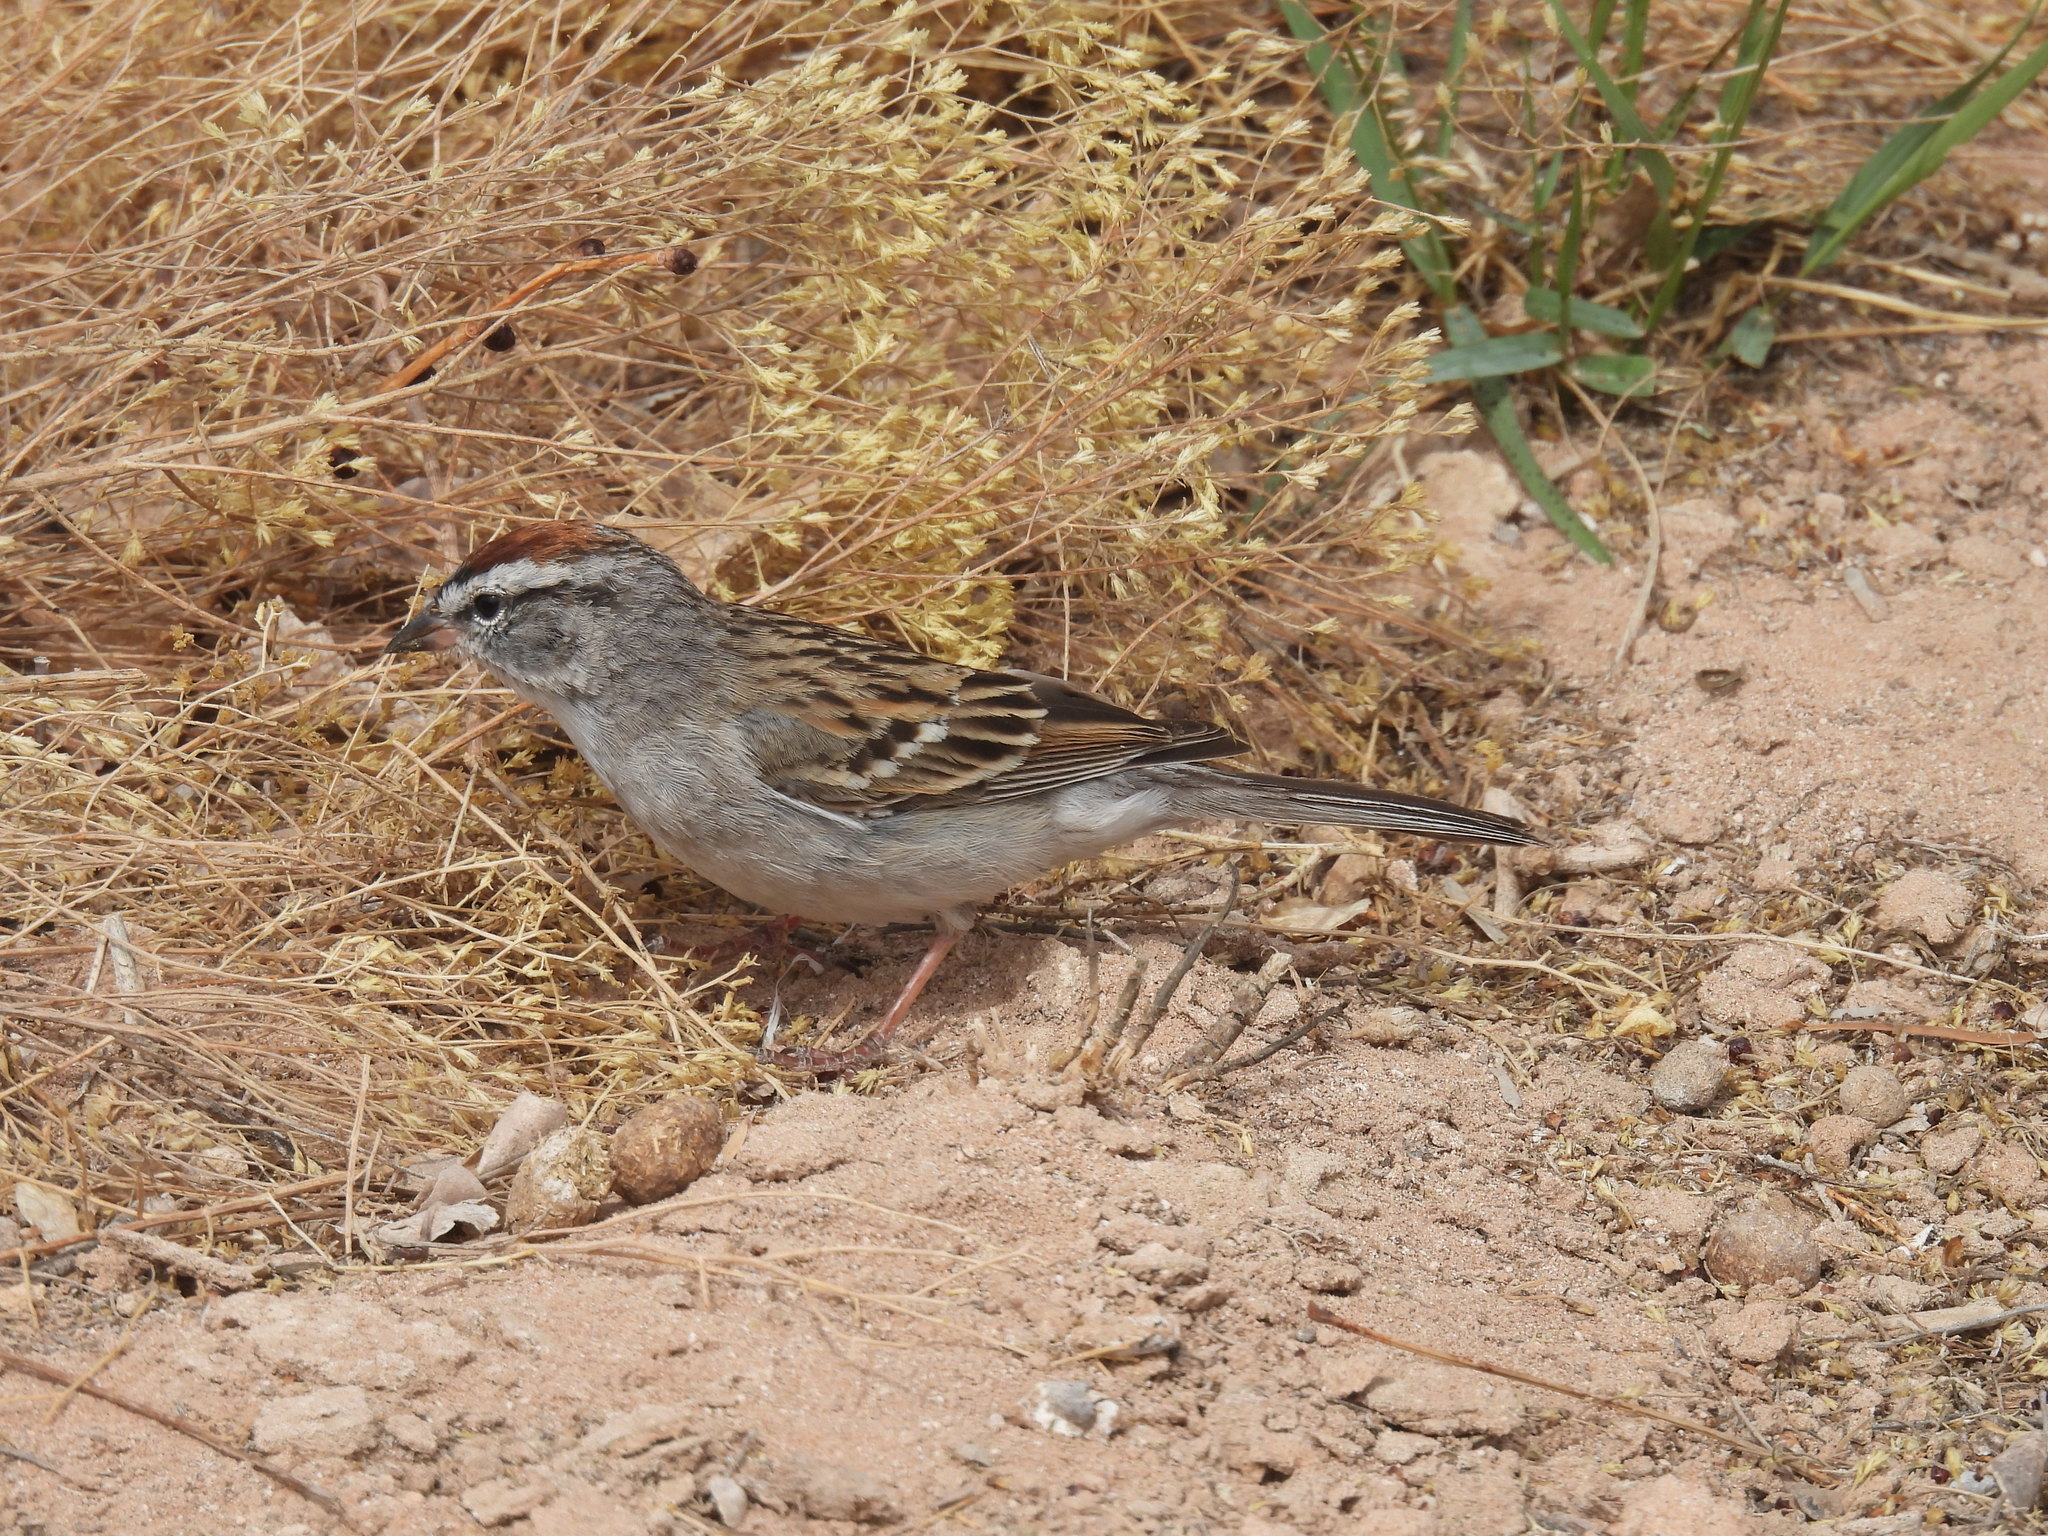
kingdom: Animalia
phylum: Chordata
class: Aves
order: Passeriformes
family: Passerellidae
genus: Spizella
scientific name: Spizella passerina
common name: Chipping sparrow
